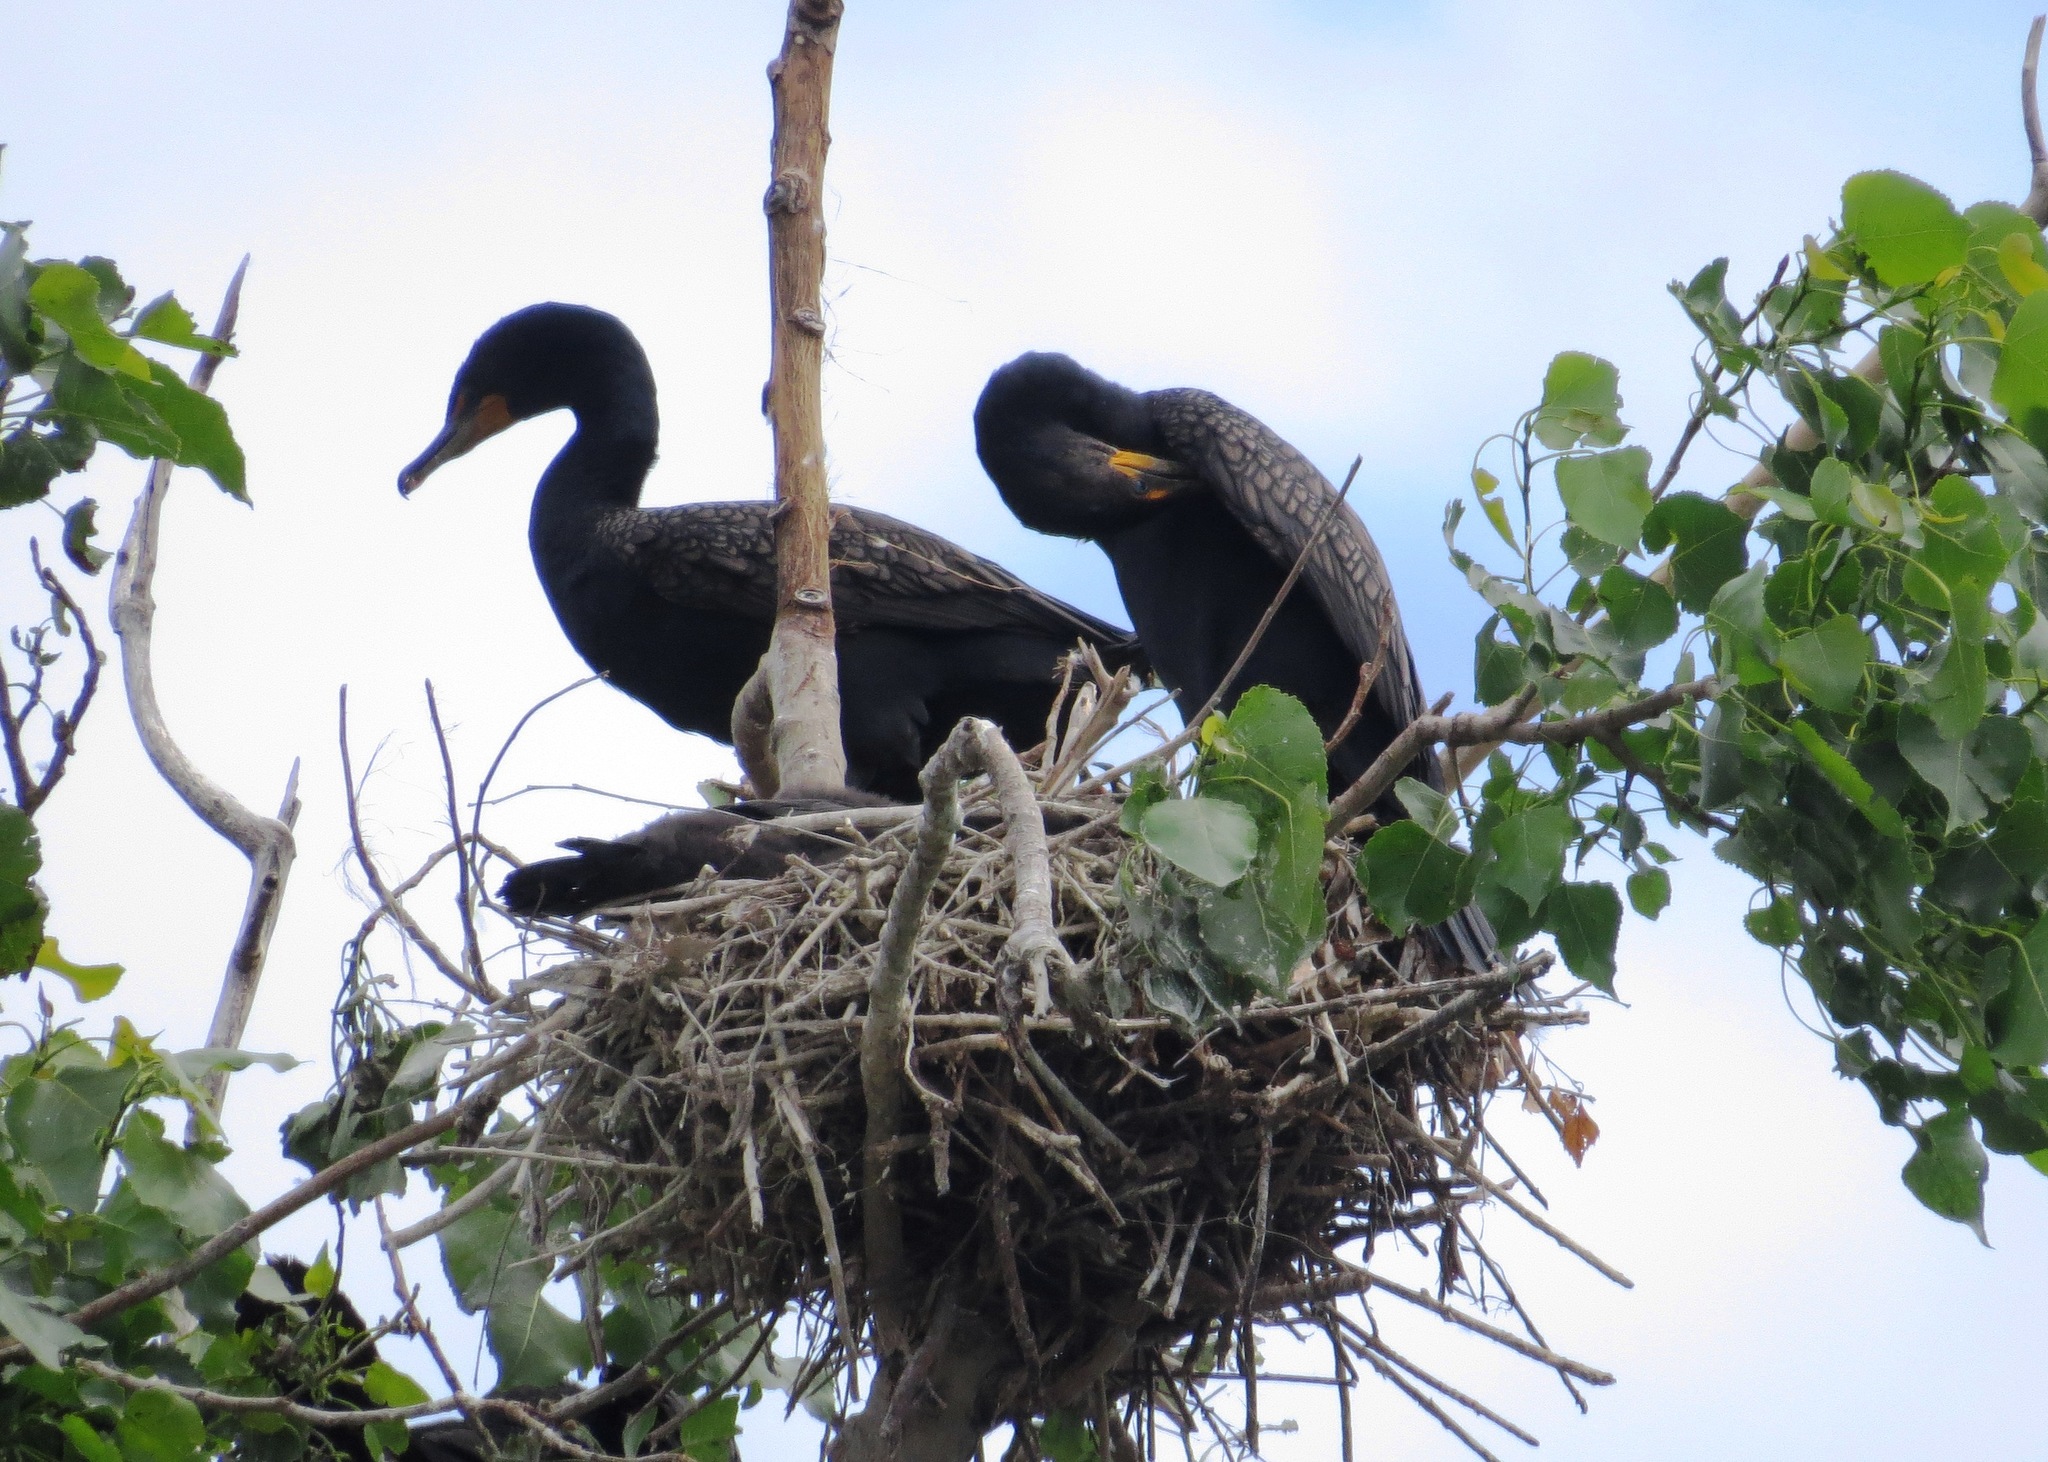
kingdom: Animalia
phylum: Chordata
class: Aves
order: Suliformes
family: Phalacrocoracidae
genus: Phalacrocorax
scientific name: Phalacrocorax auritus
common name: Double-crested cormorant
